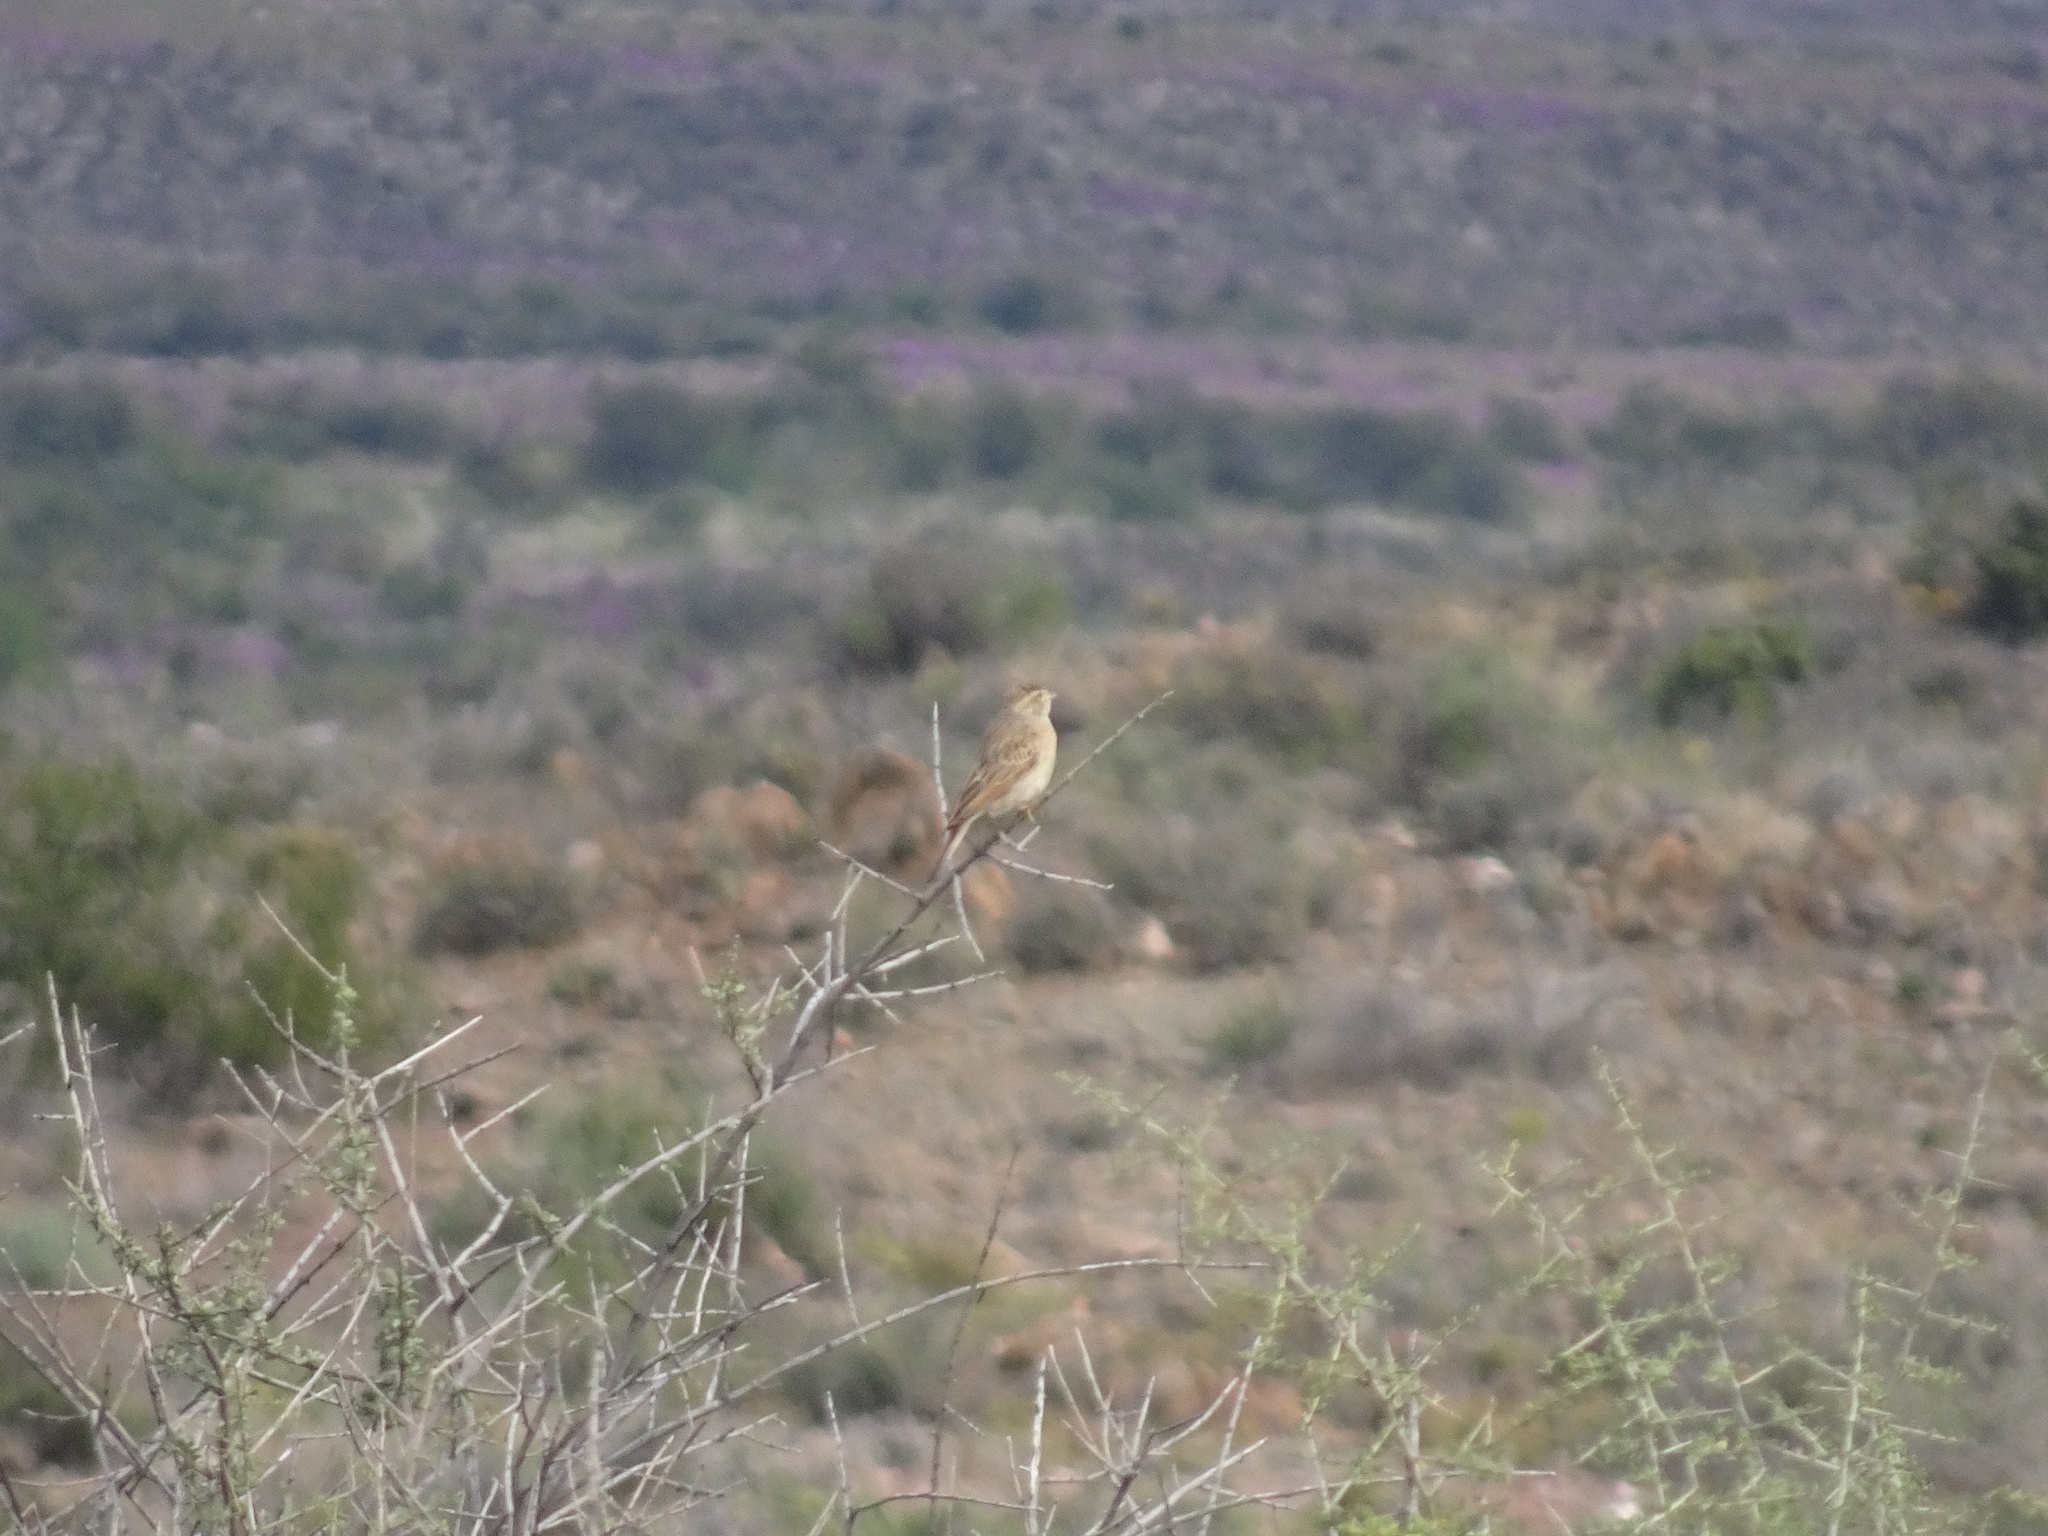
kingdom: Animalia
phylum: Chordata
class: Aves
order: Passeriformes
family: Emberizidae
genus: Emberiza
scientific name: Emberiza impetuani
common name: Lark-like bunting
